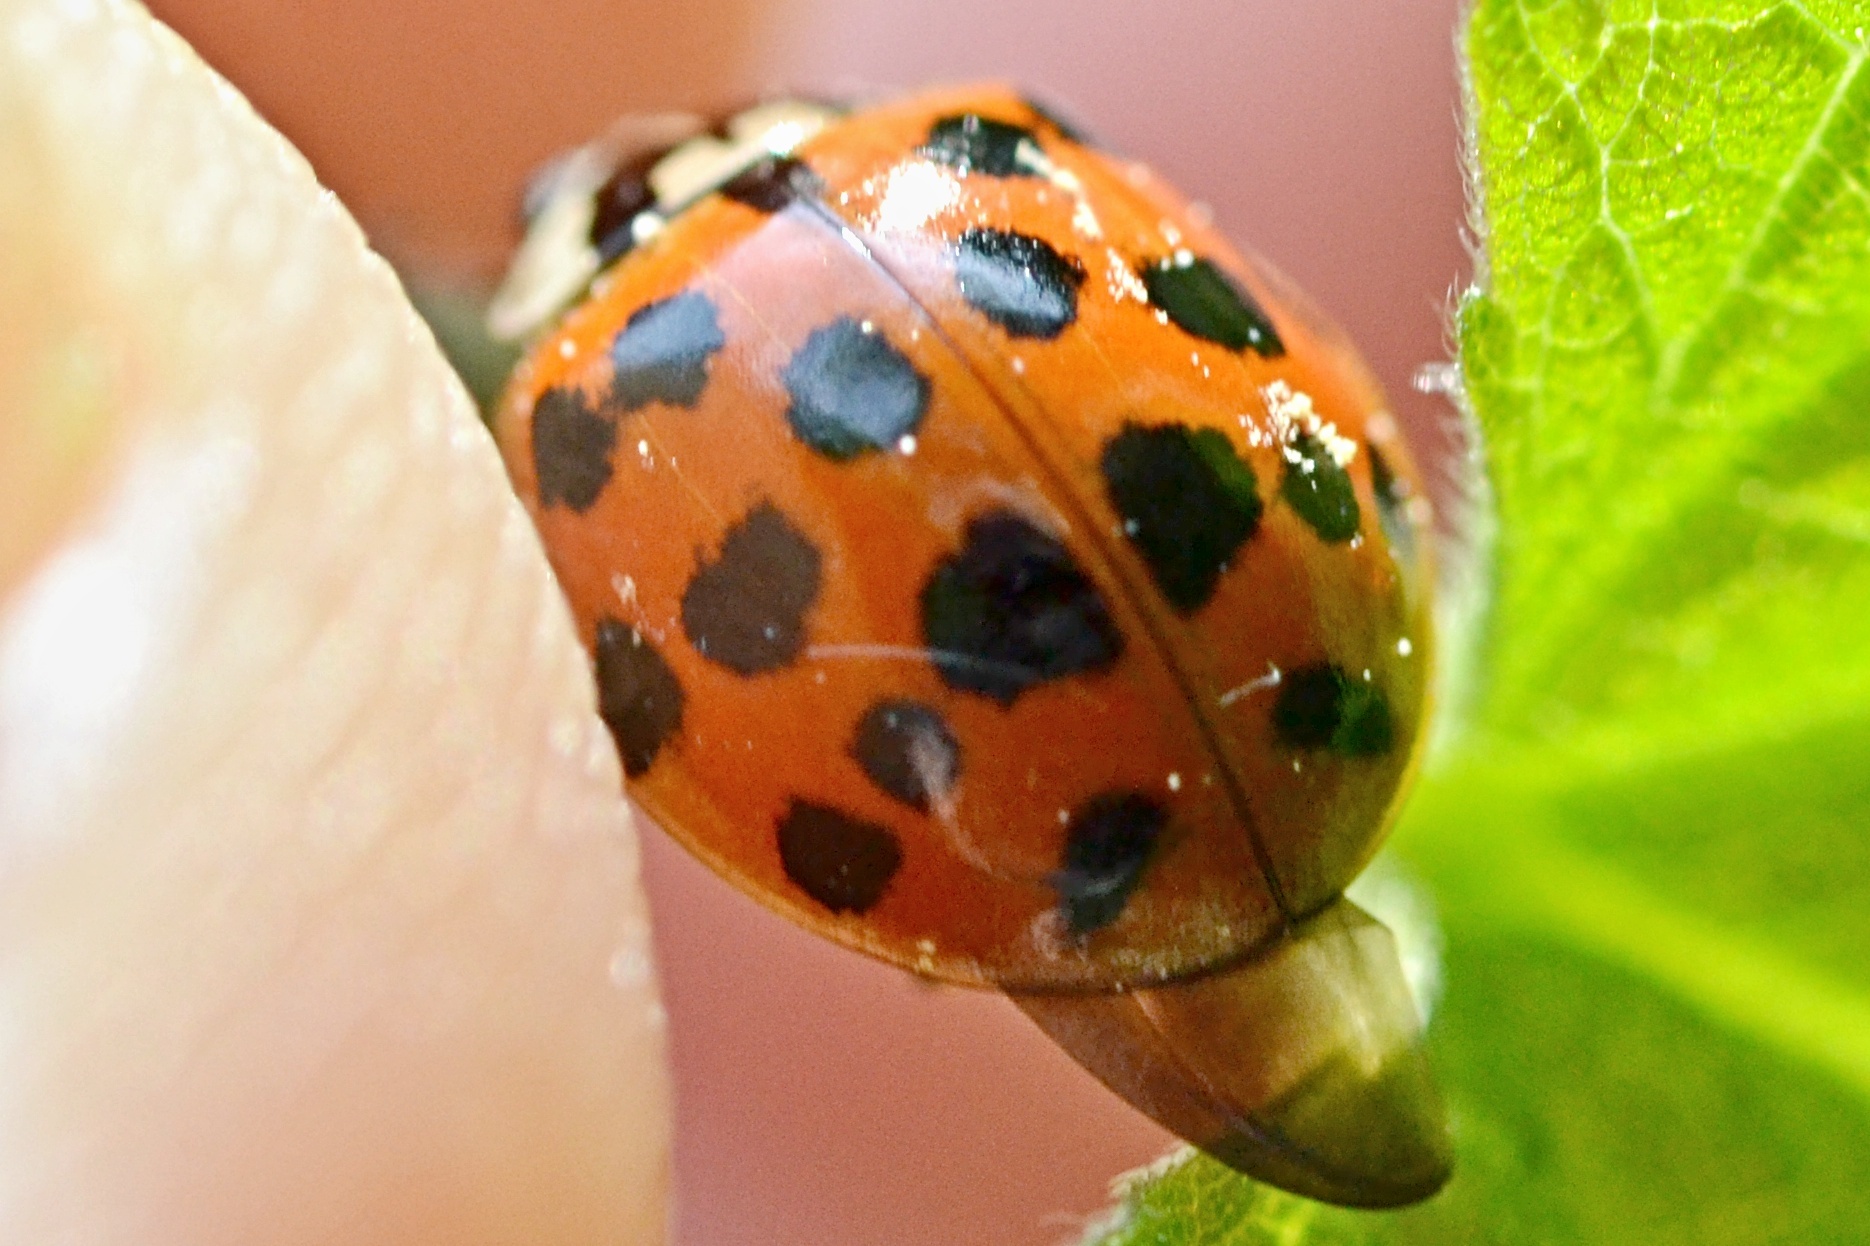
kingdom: Animalia
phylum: Arthropoda
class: Insecta
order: Coleoptera
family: Coccinellidae
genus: Harmonia
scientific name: Harmonia axyridis
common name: Harlequin ladybird
